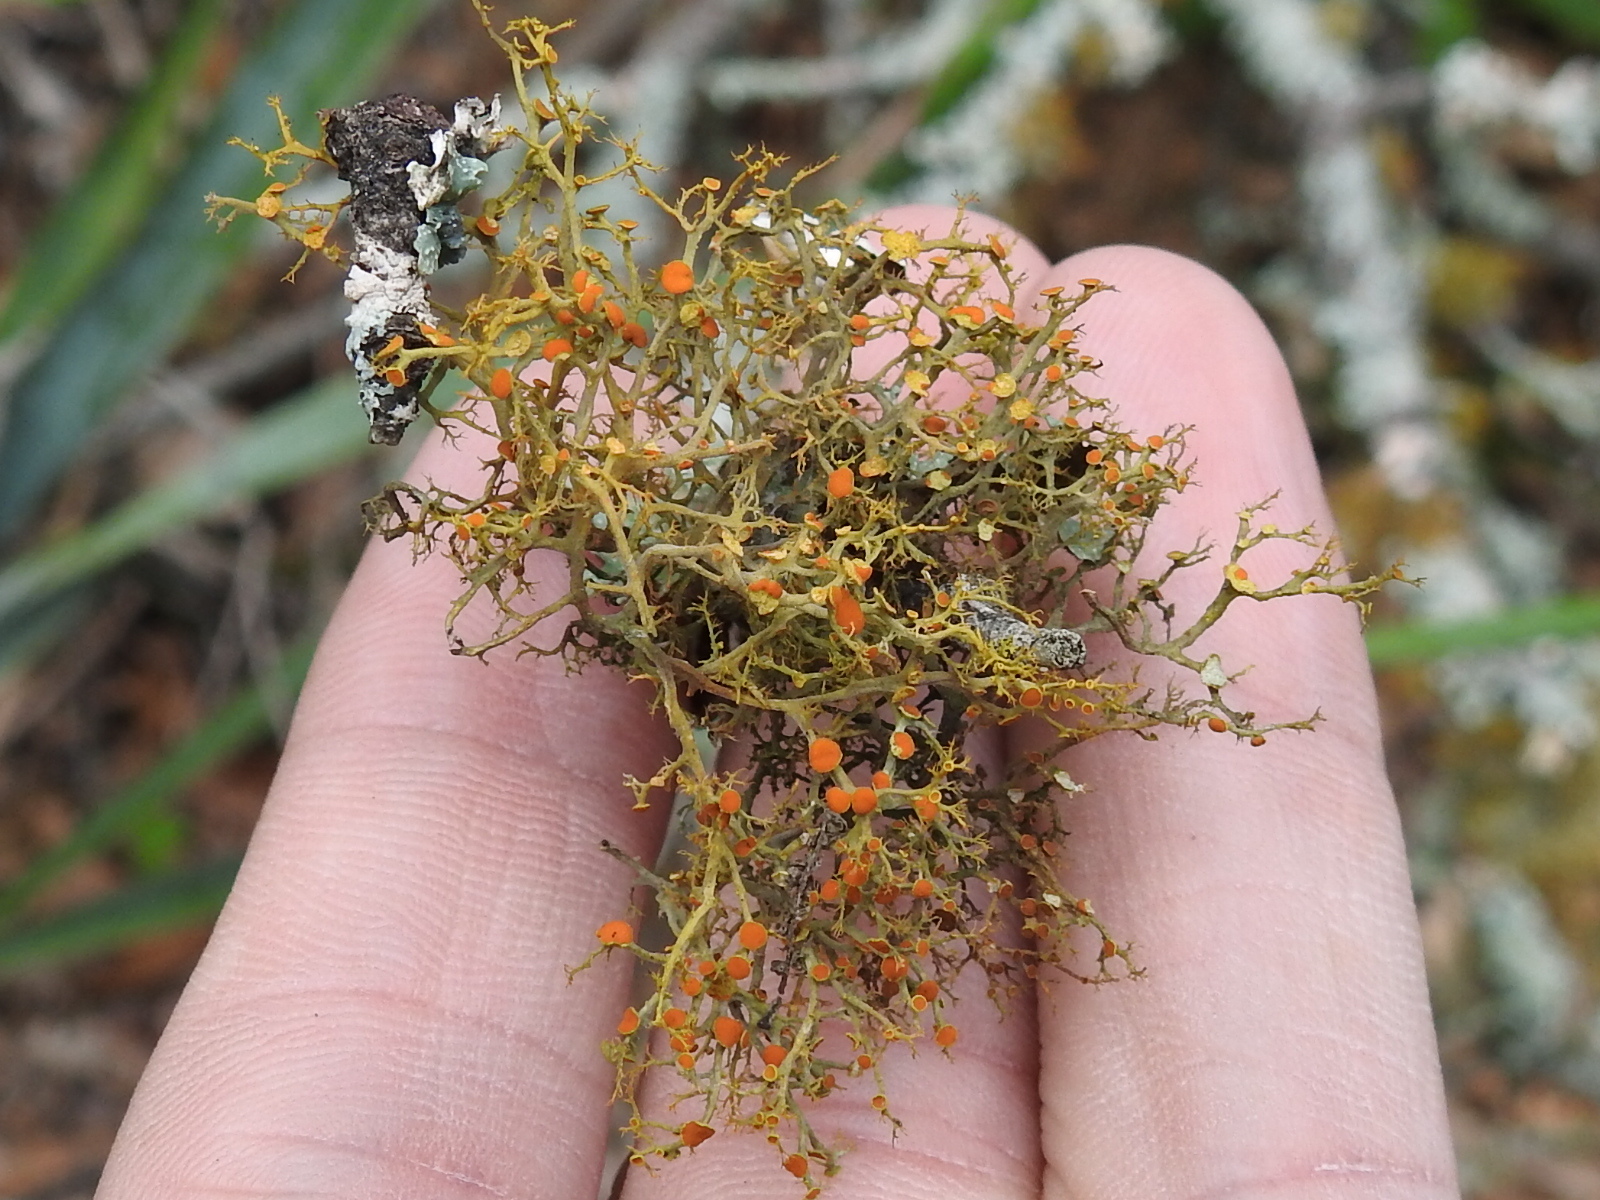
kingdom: Fungi
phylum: Ascomycota
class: Lecanoromycetes
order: Teloschistales
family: Teloschistaceae
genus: Teloschistes
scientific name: Teloschistes exilis
